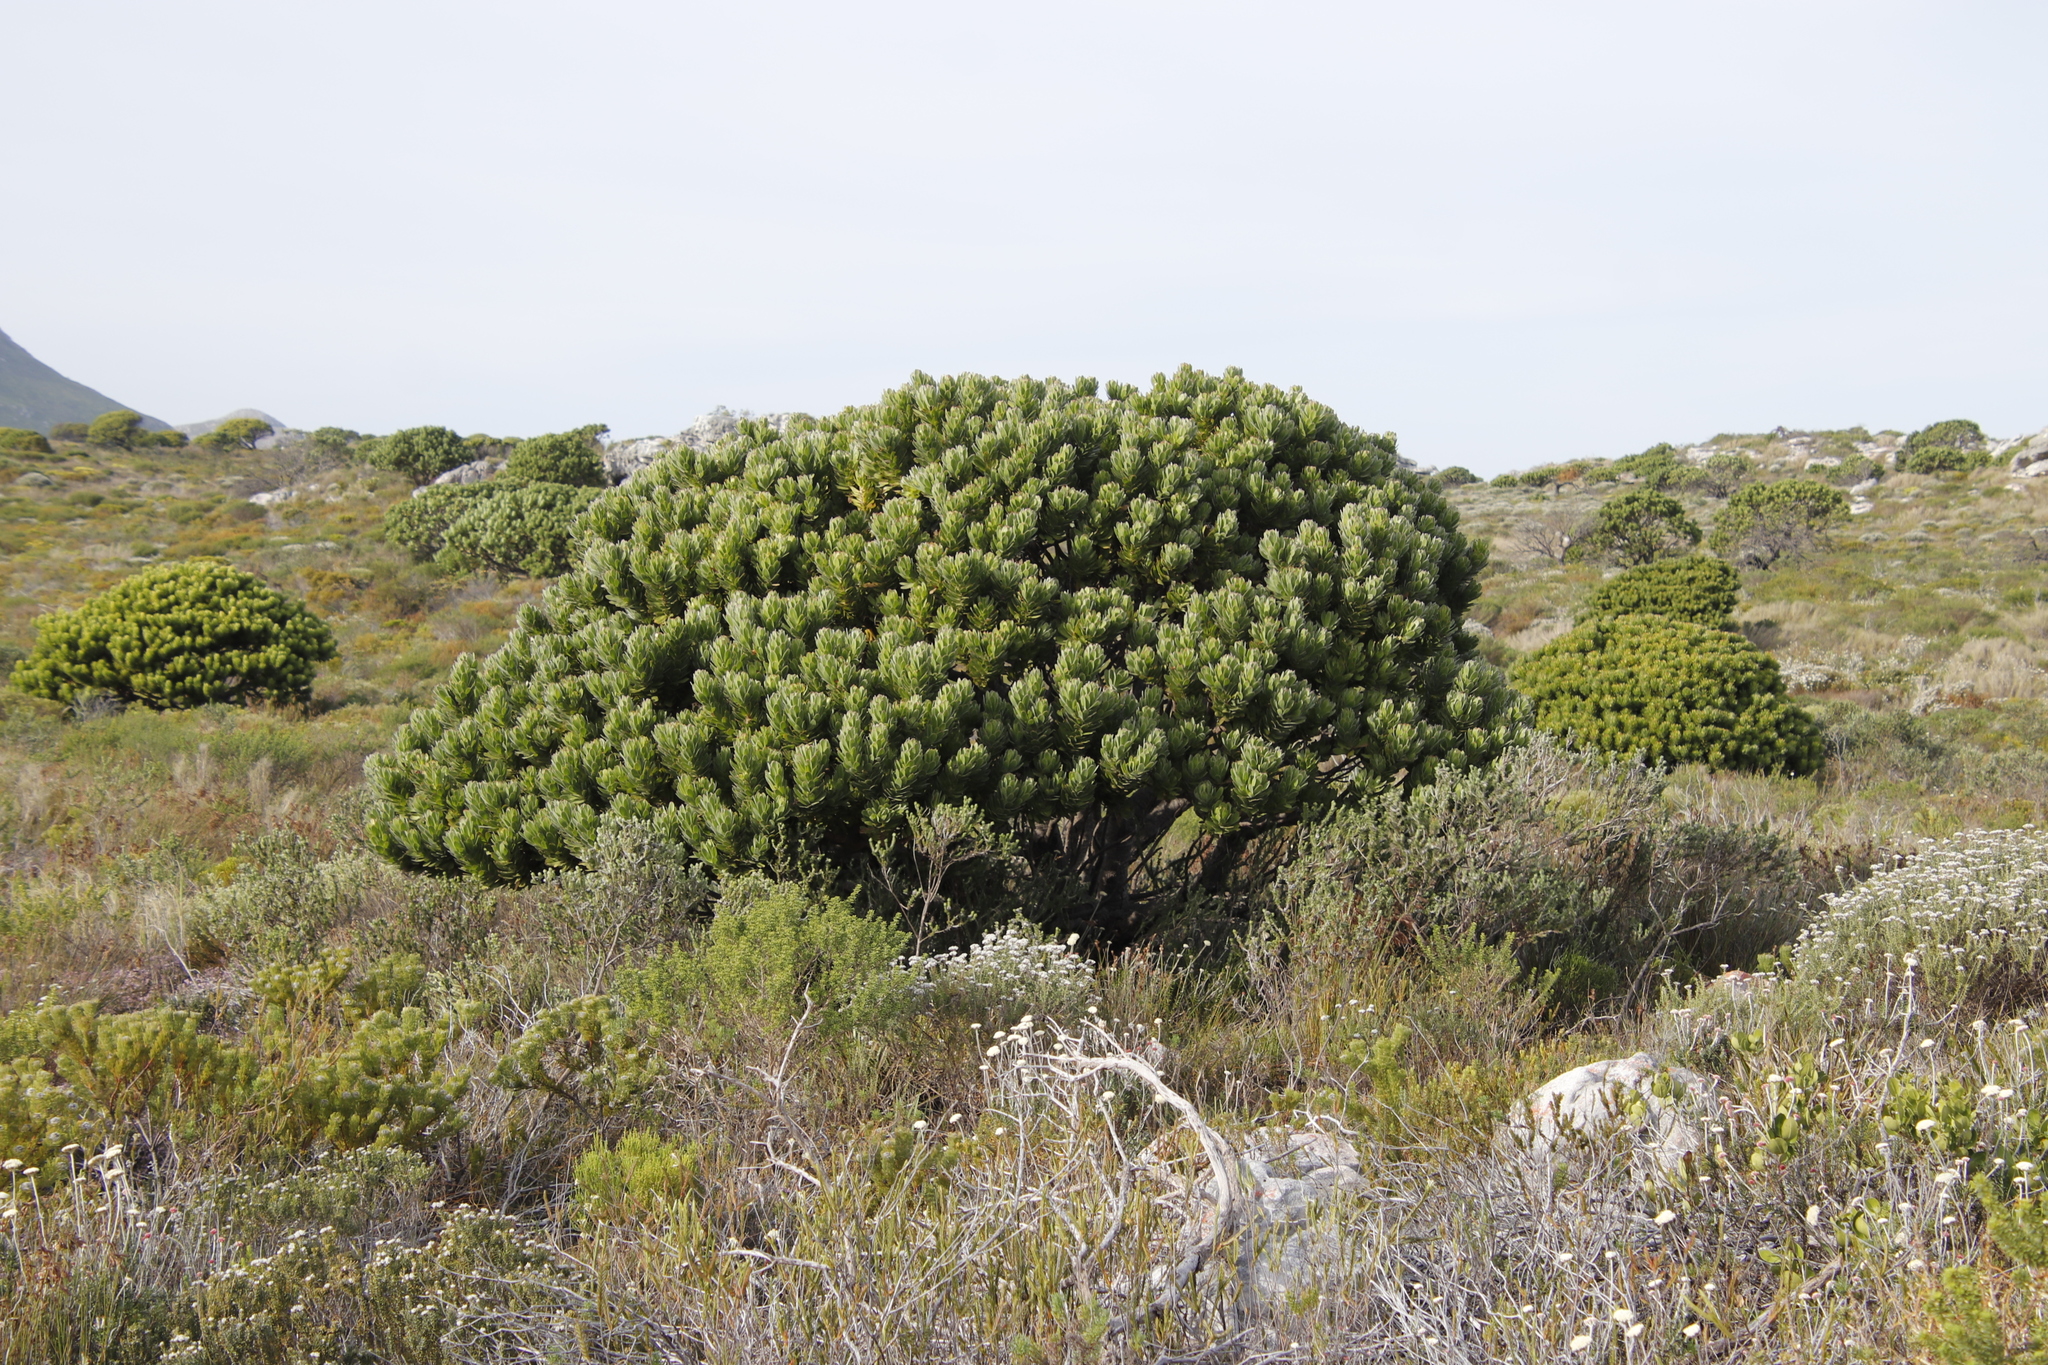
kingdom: Plantae
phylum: Tracheophyta
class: Magnoliopsida
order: Proteales
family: Proteaceae
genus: Mimetes
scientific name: Mimetes fimbriifolius
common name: Fringed bottlebrush
